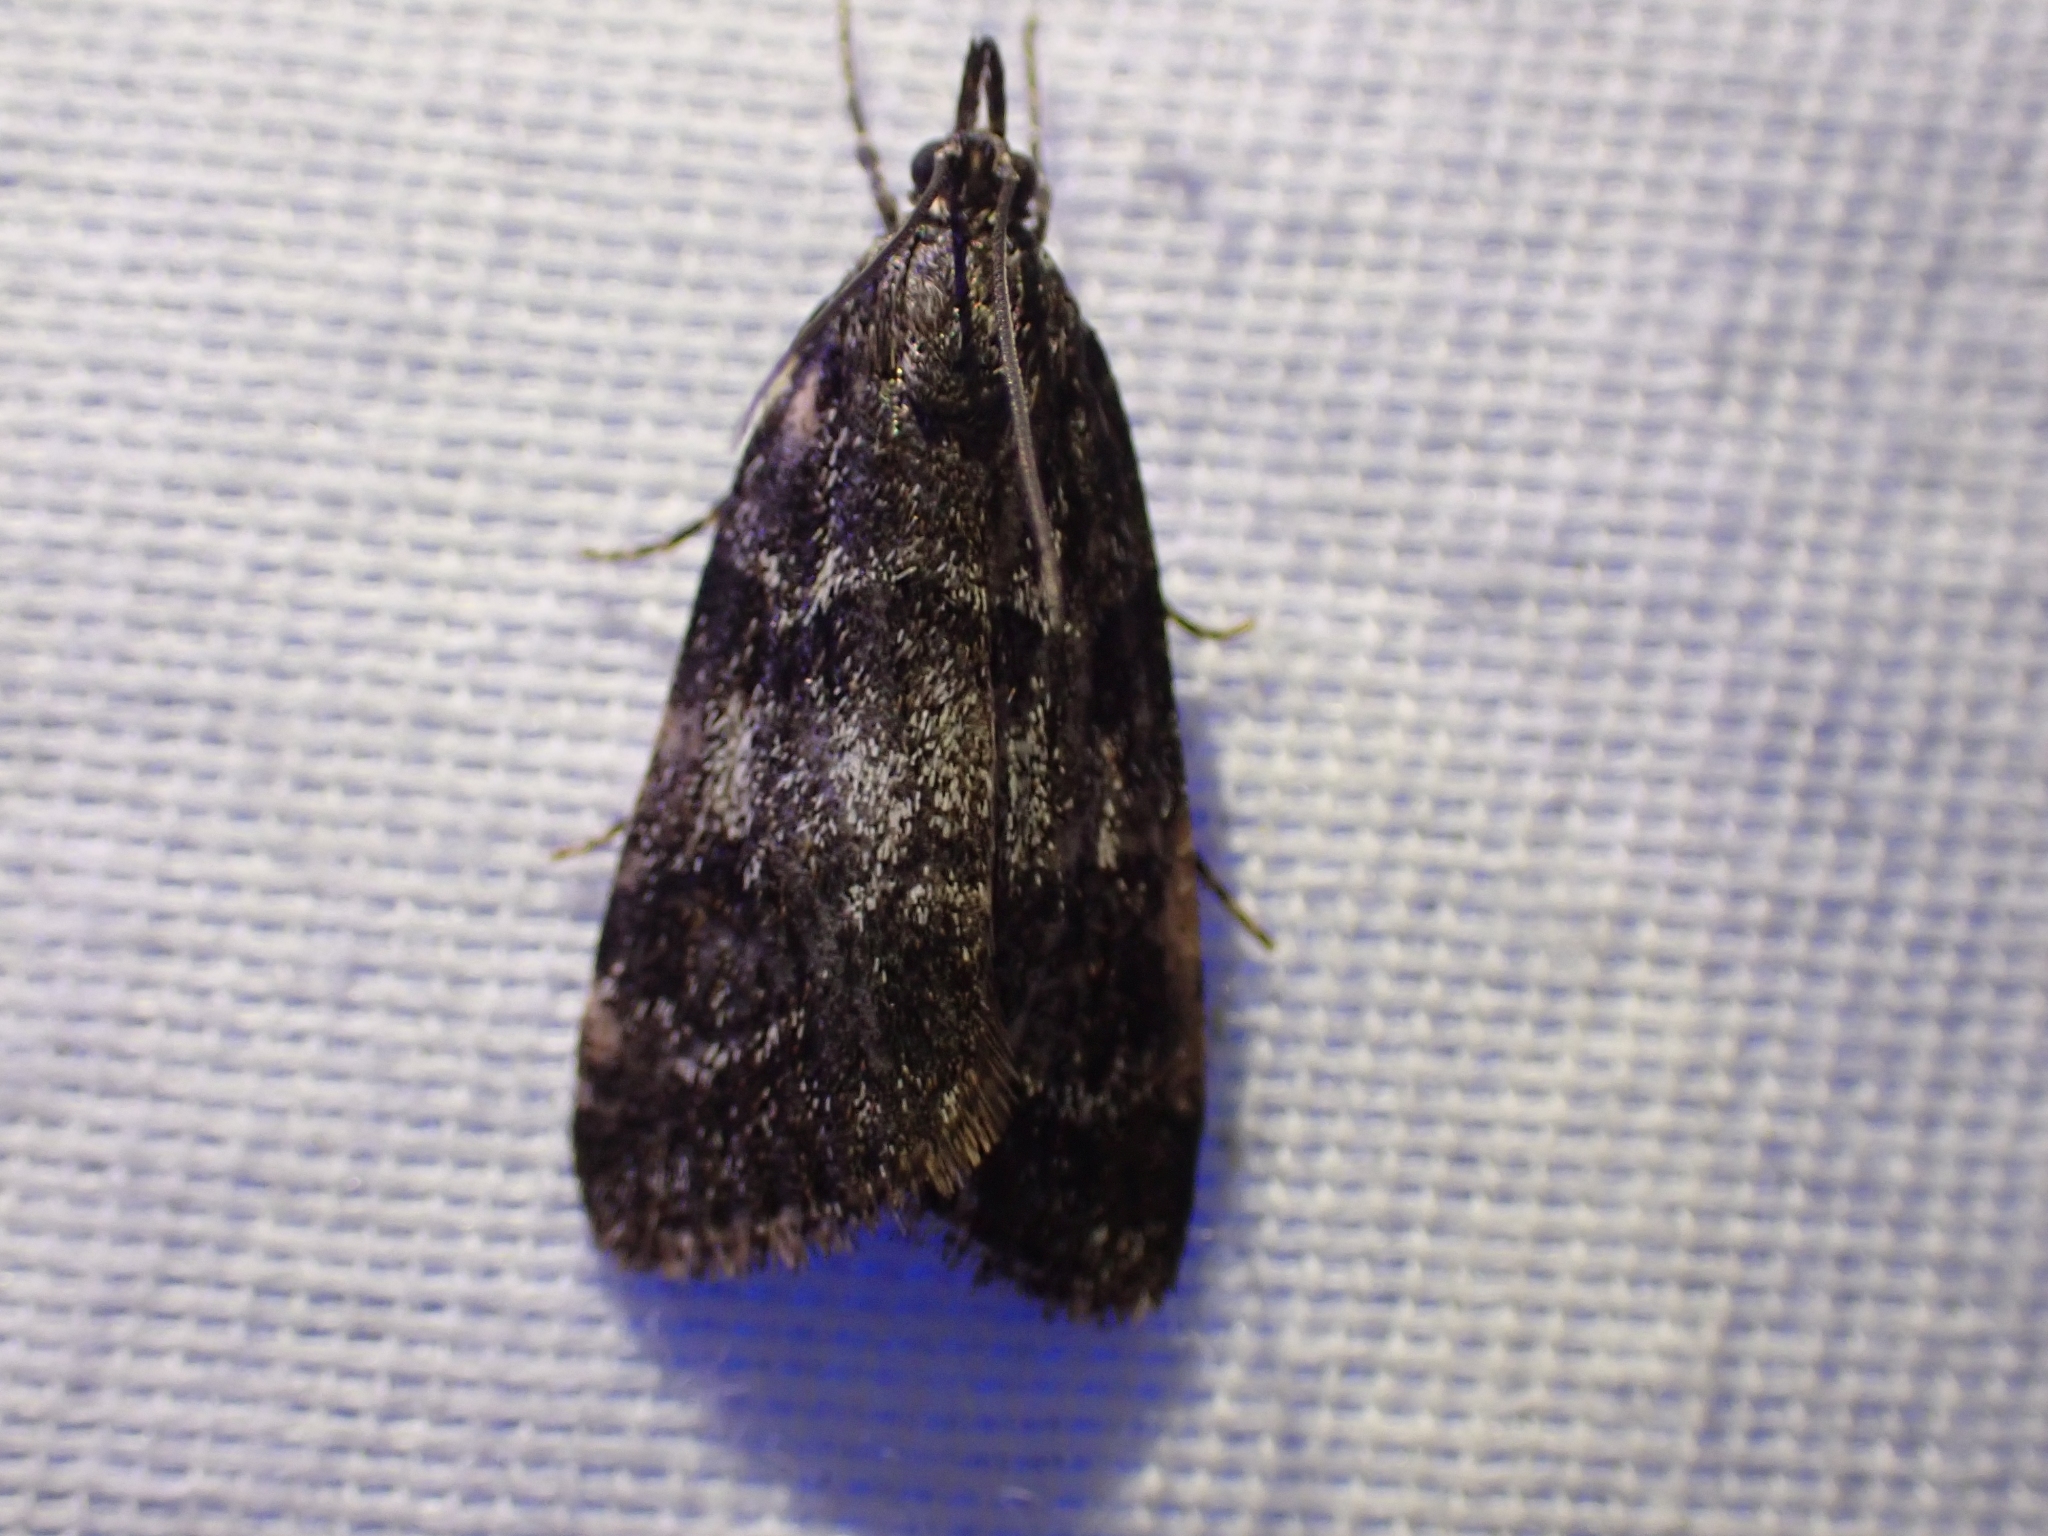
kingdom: Animalia
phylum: Arthropoda
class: Insecta
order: Lepidoptera
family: Crambidae
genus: Gesneria
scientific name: Gesneria centuriella
